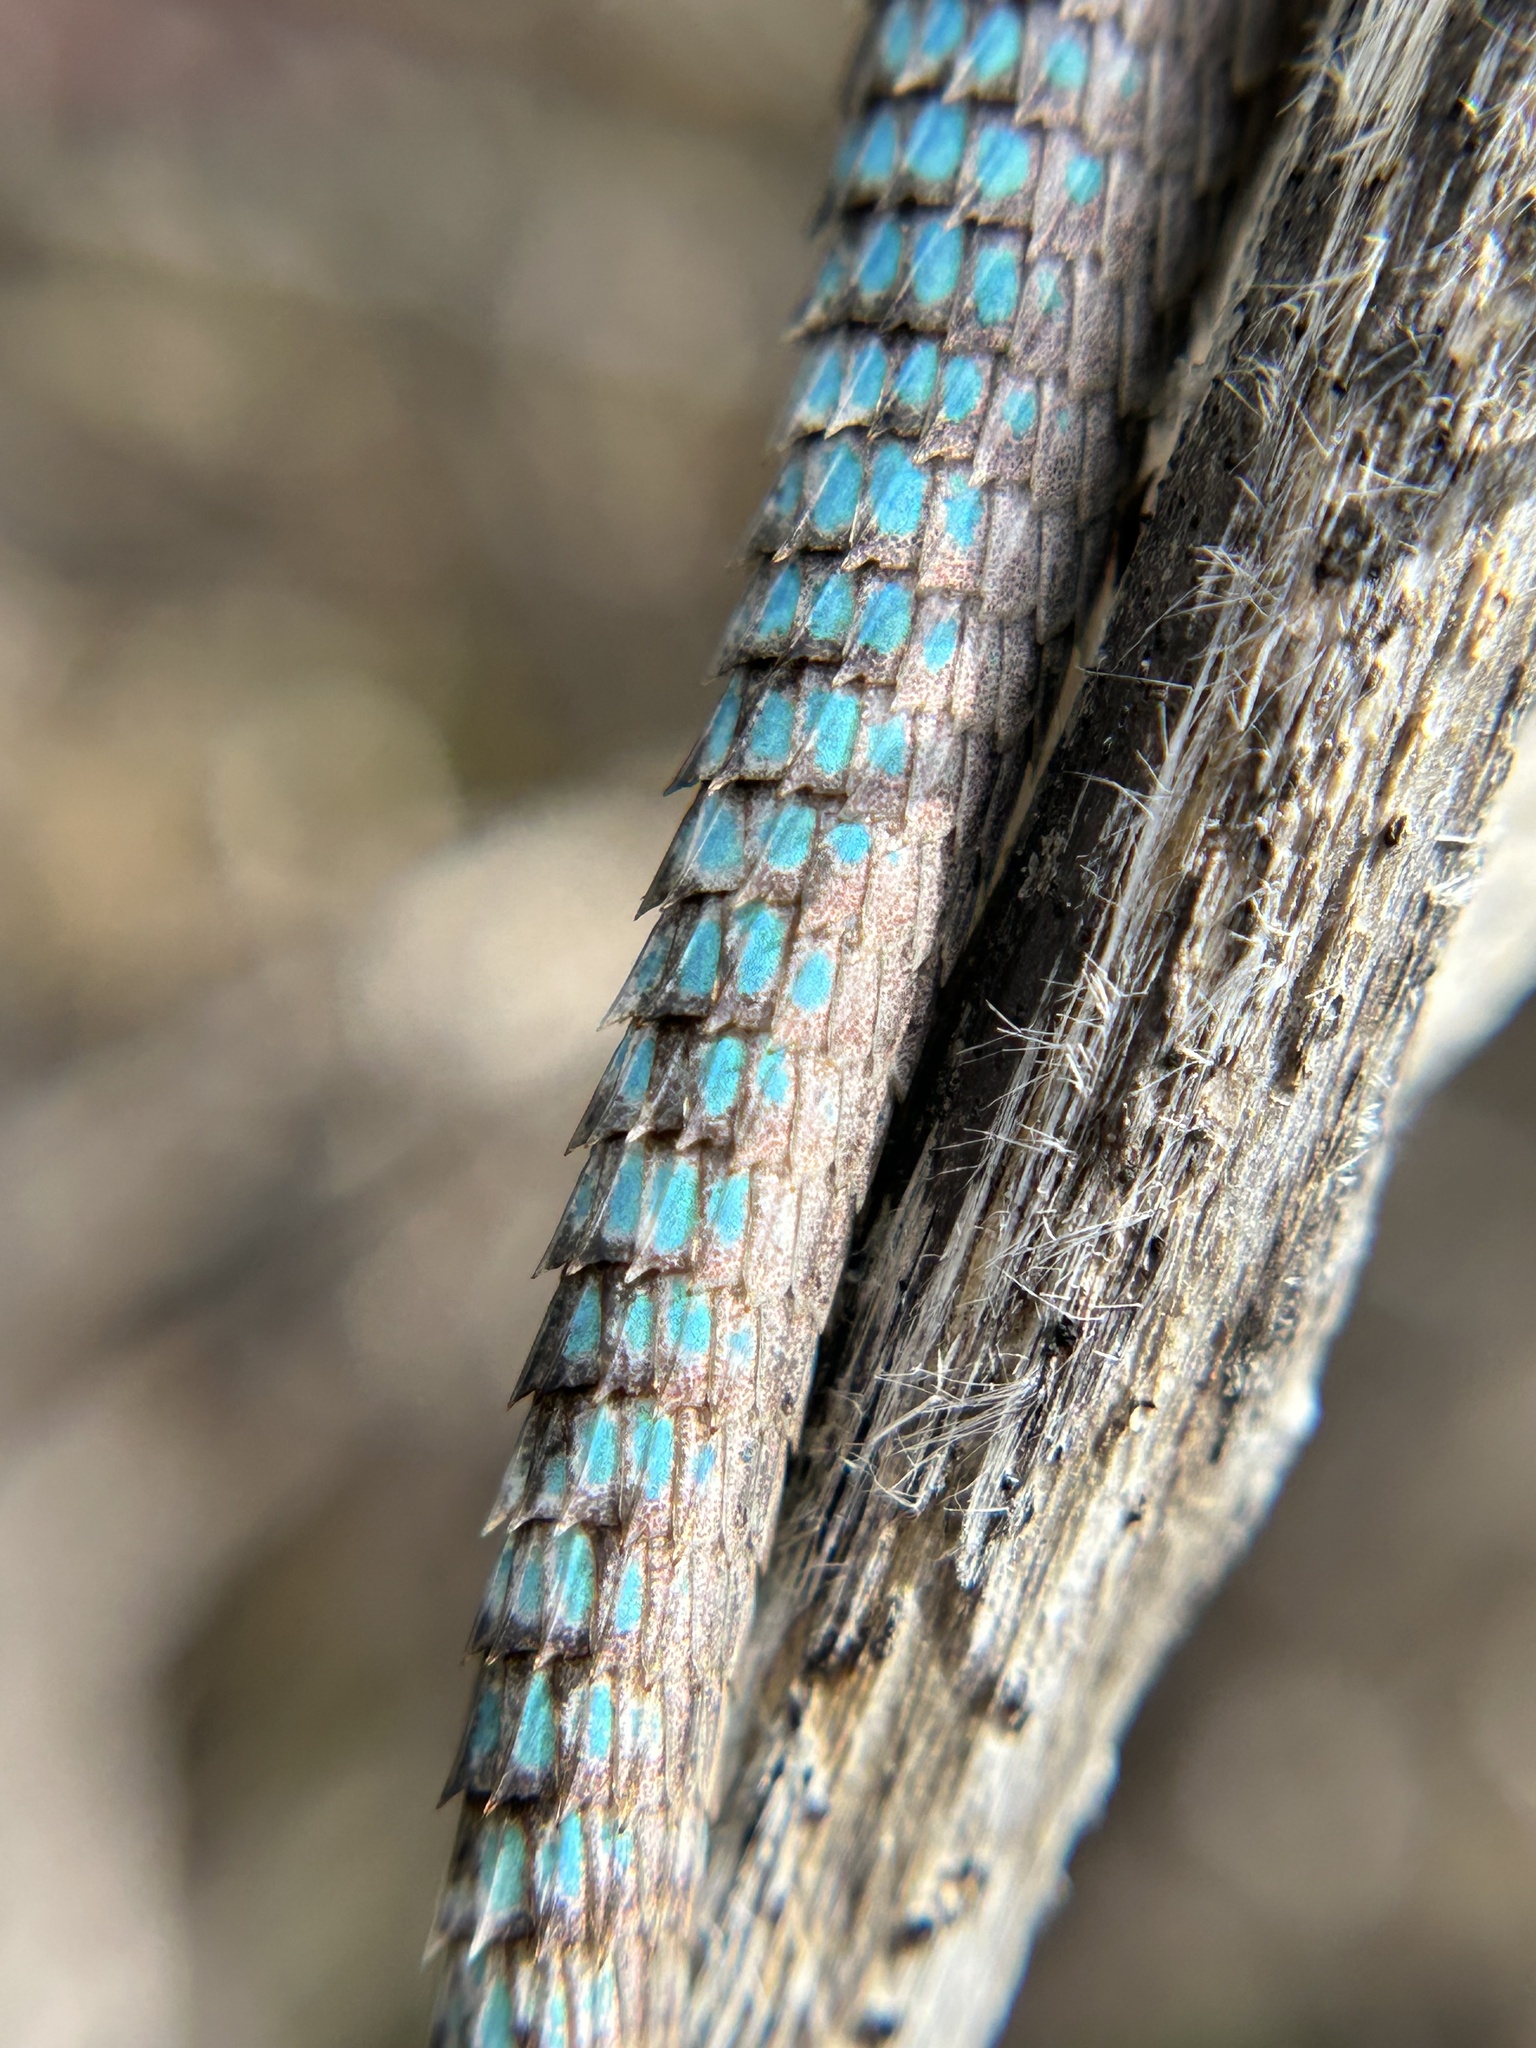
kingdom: Animalia
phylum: Chordata
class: Squamata
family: Phrynosomatidae
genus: Sceloporus
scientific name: Sceloporus occidentalis
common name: Western fence lizard
